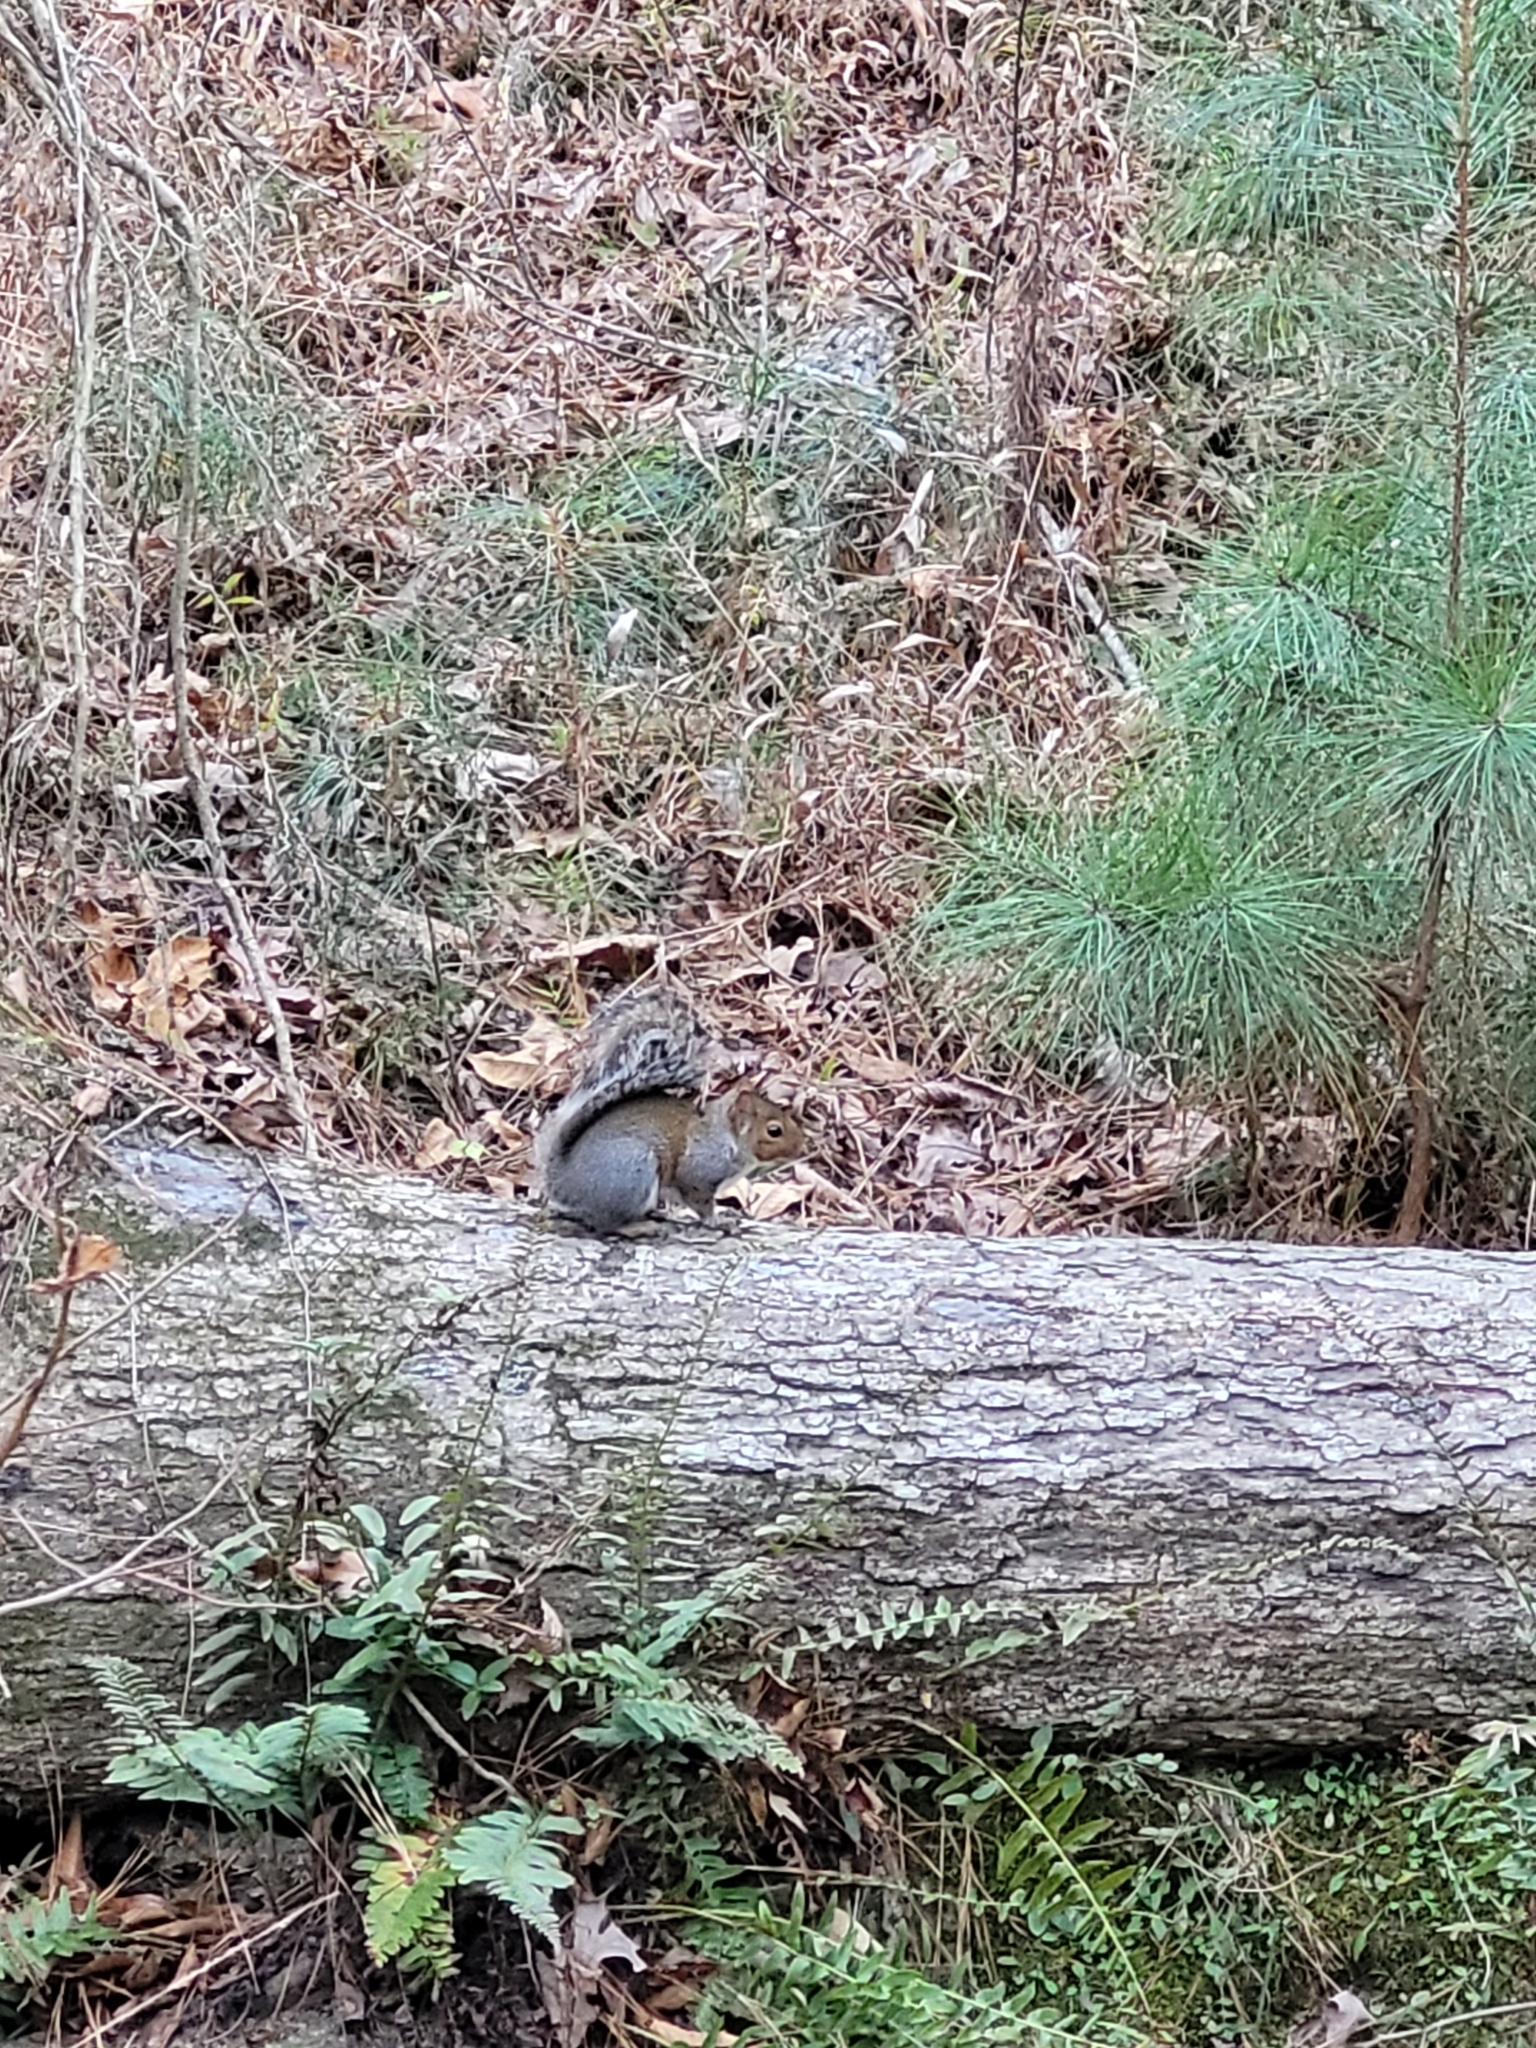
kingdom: Animalia
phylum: Chordata
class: Mammalia
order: Rodentia
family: Sciuridae
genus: Sciurus
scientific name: Sciurus carolinensis
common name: Eastern gray squirrel
